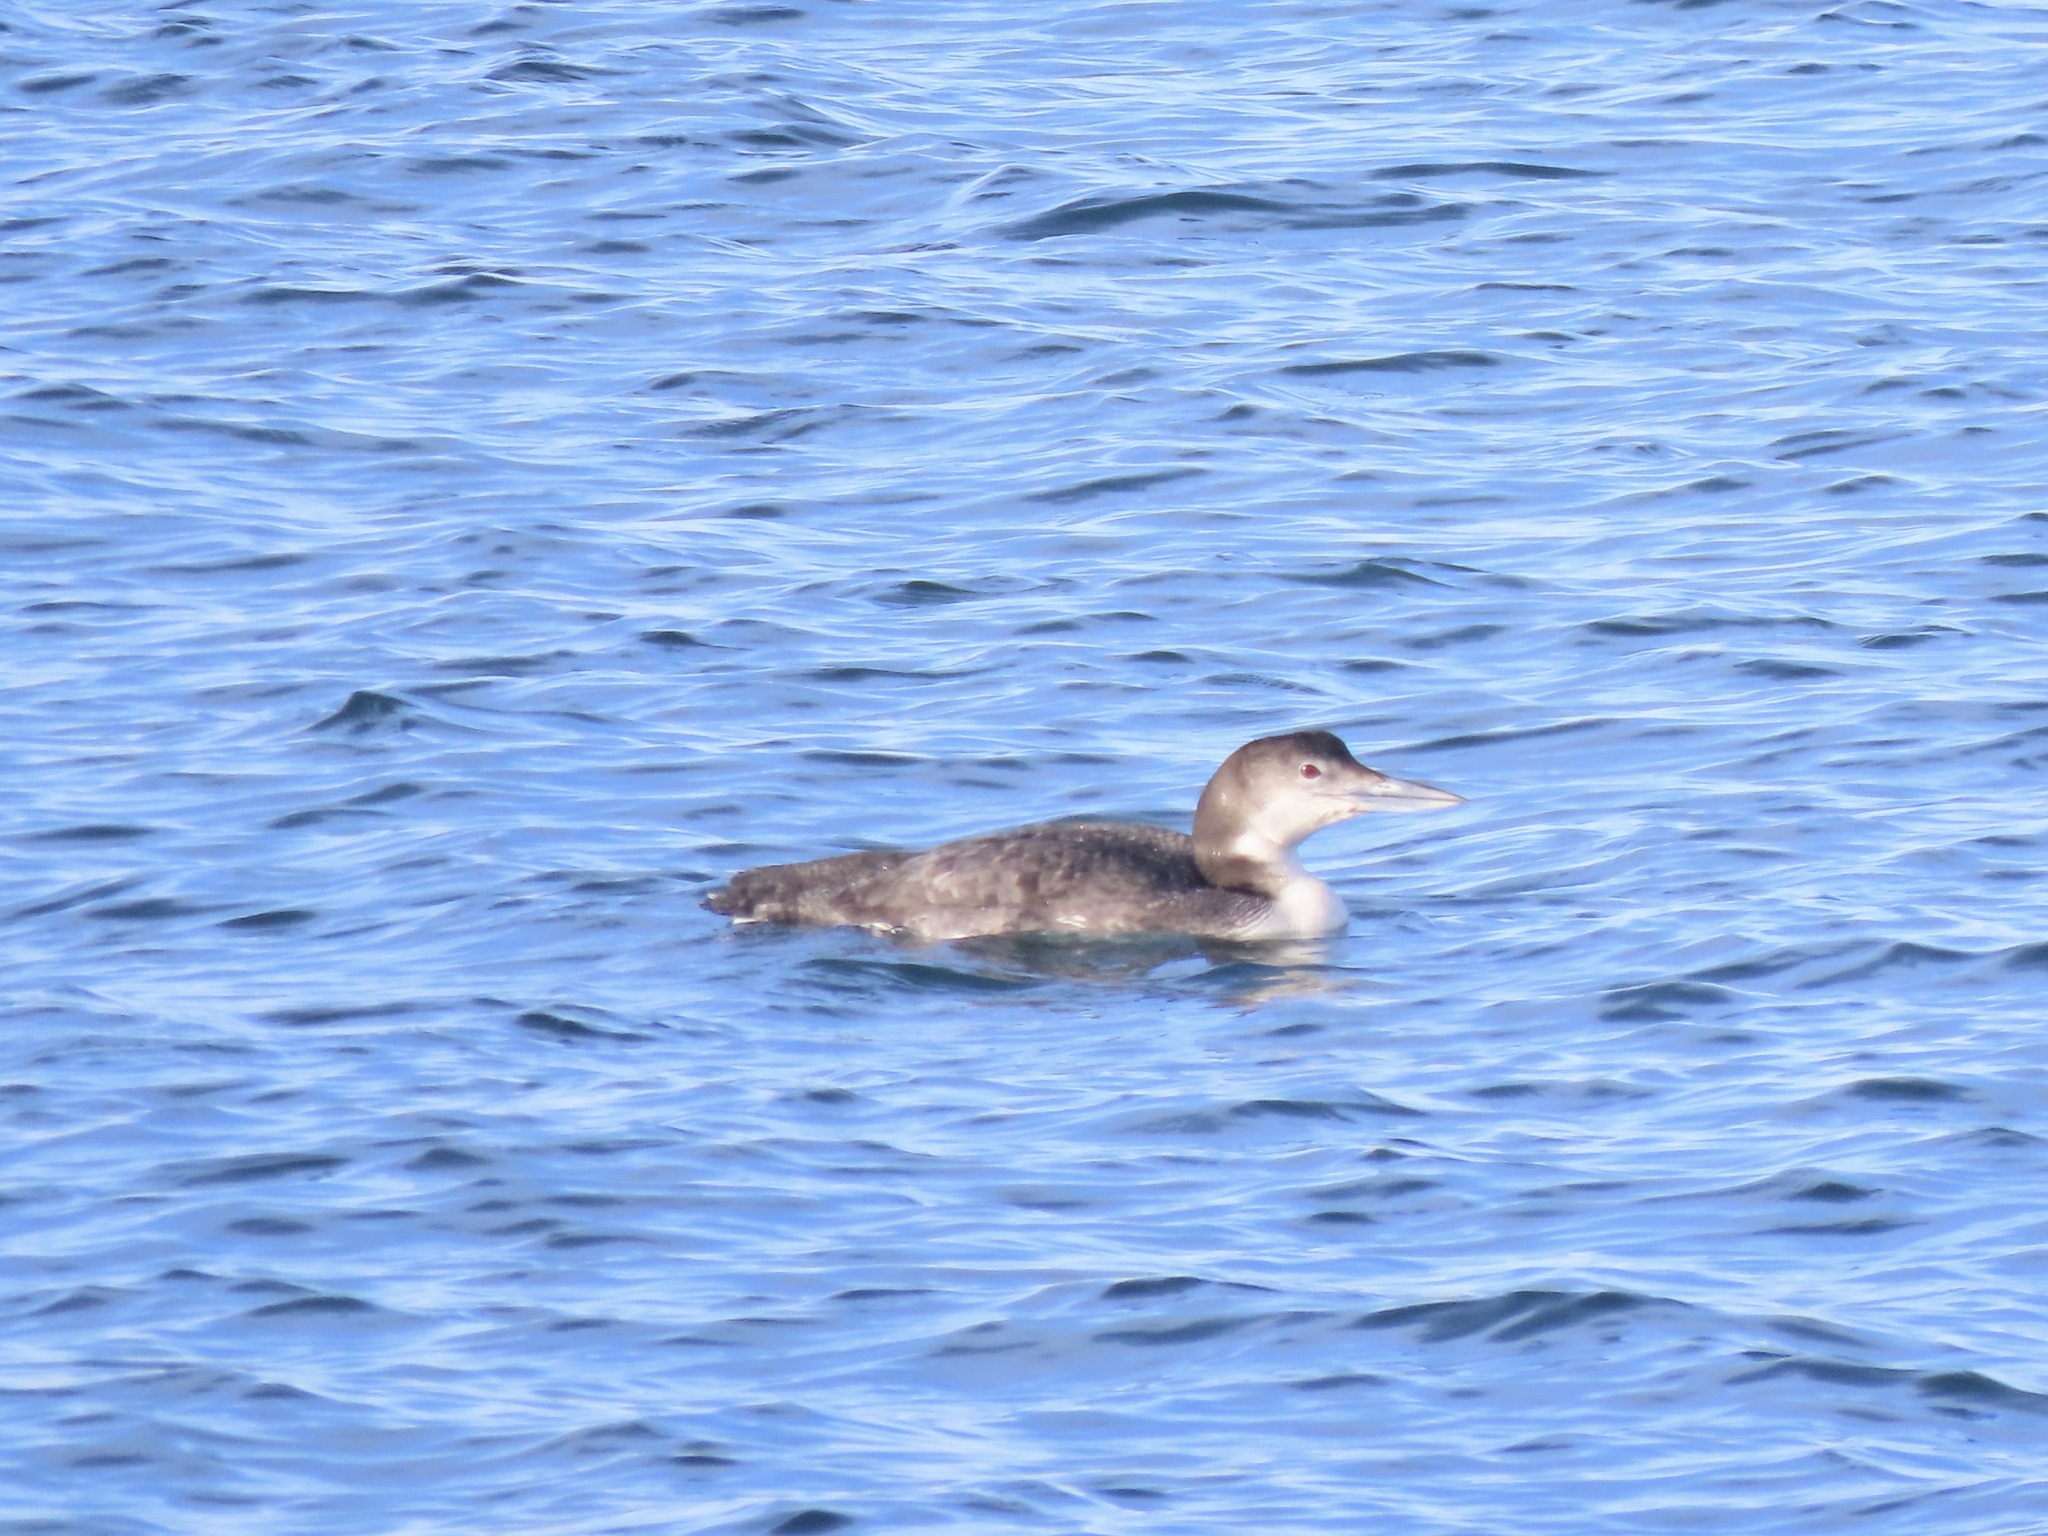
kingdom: Animalia
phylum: Chordata
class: Aves
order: Gaviiformes
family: Gaviidae
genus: Gavia
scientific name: Gavia immer
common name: Common loon
